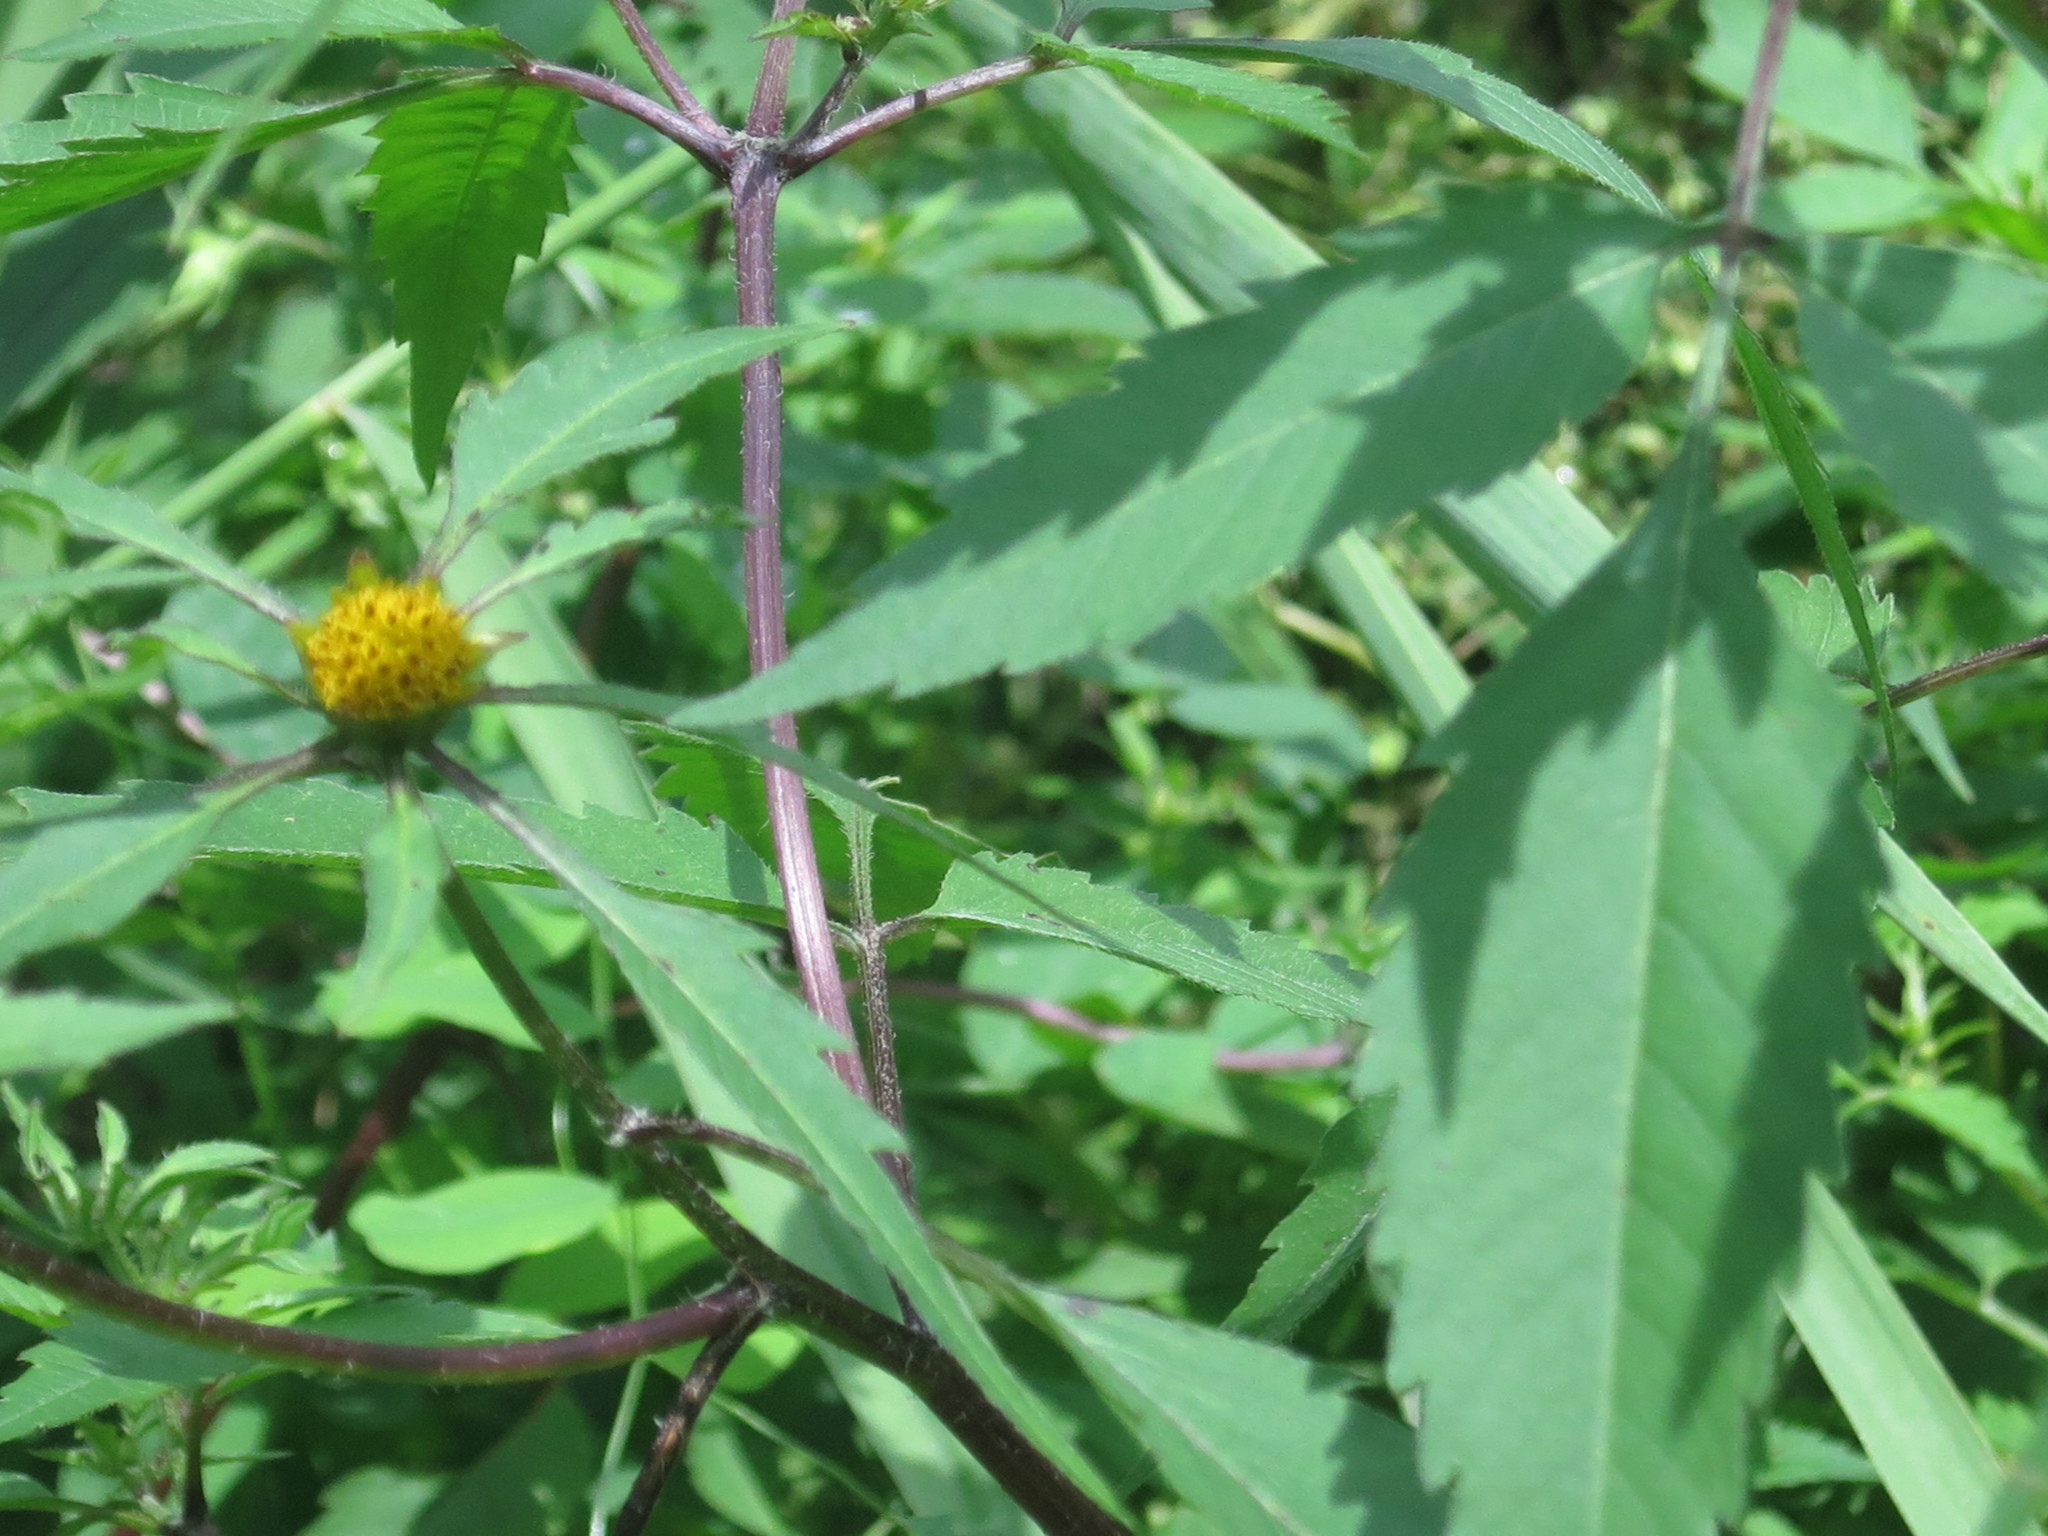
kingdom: Plantae
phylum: Tracheophyta
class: Magnoliopsida
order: Asterales
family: Asteraceae
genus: Bidens
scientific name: Bidens frondosa
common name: Beggarticks
